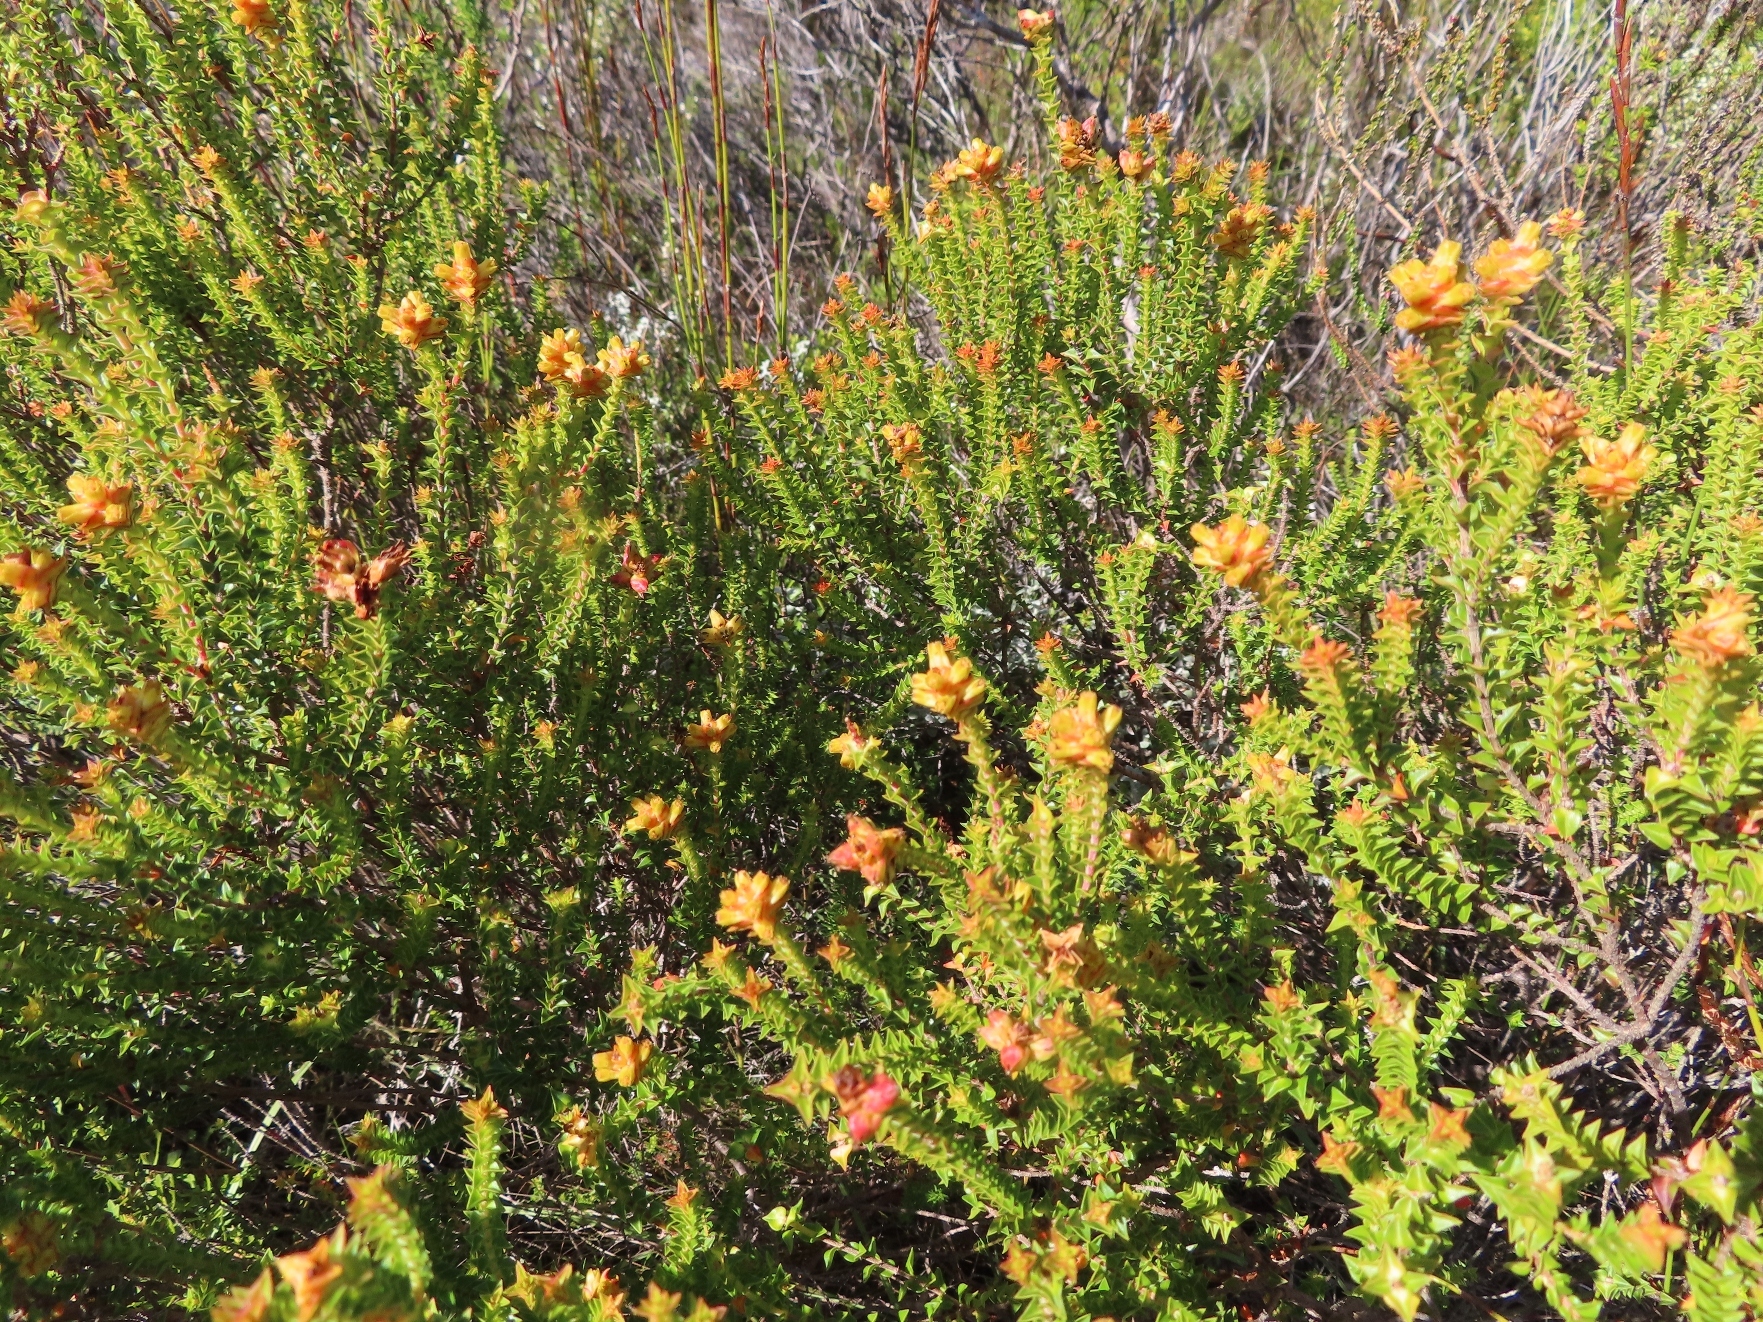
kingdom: Plantae
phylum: Tracheophyta
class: Magnoliopsida
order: Myrtales
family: Penaeaceae
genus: Penaea
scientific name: Penaea mucronata
